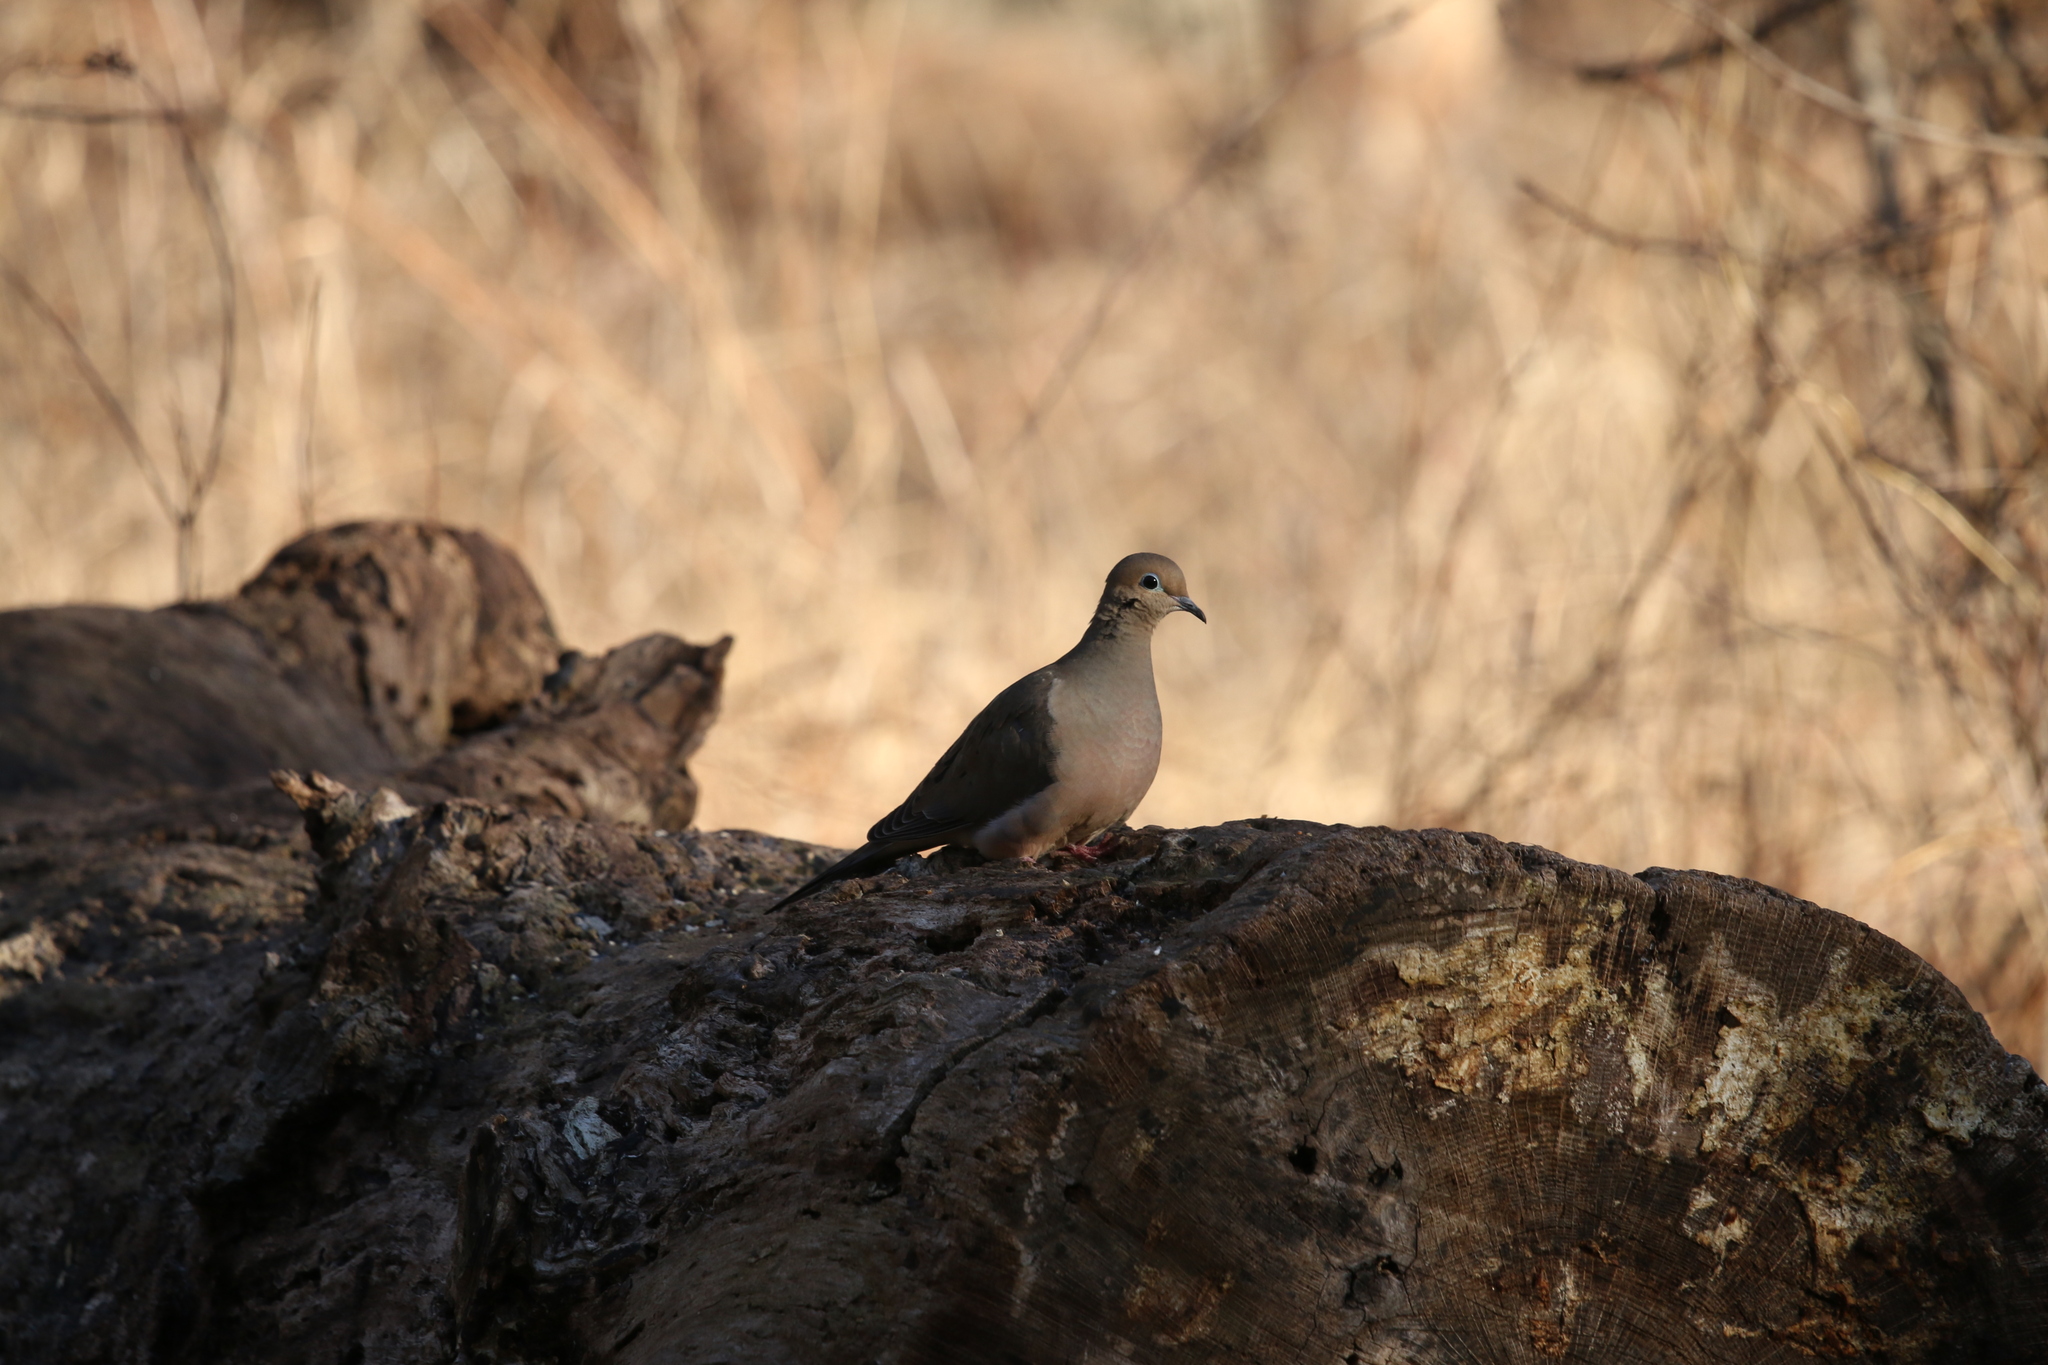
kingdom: Animalia
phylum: Chordata
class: Aves
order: Columbiformes
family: Columbidae
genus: Zenaida
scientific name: Zenaida macroura
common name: Mourning dove
